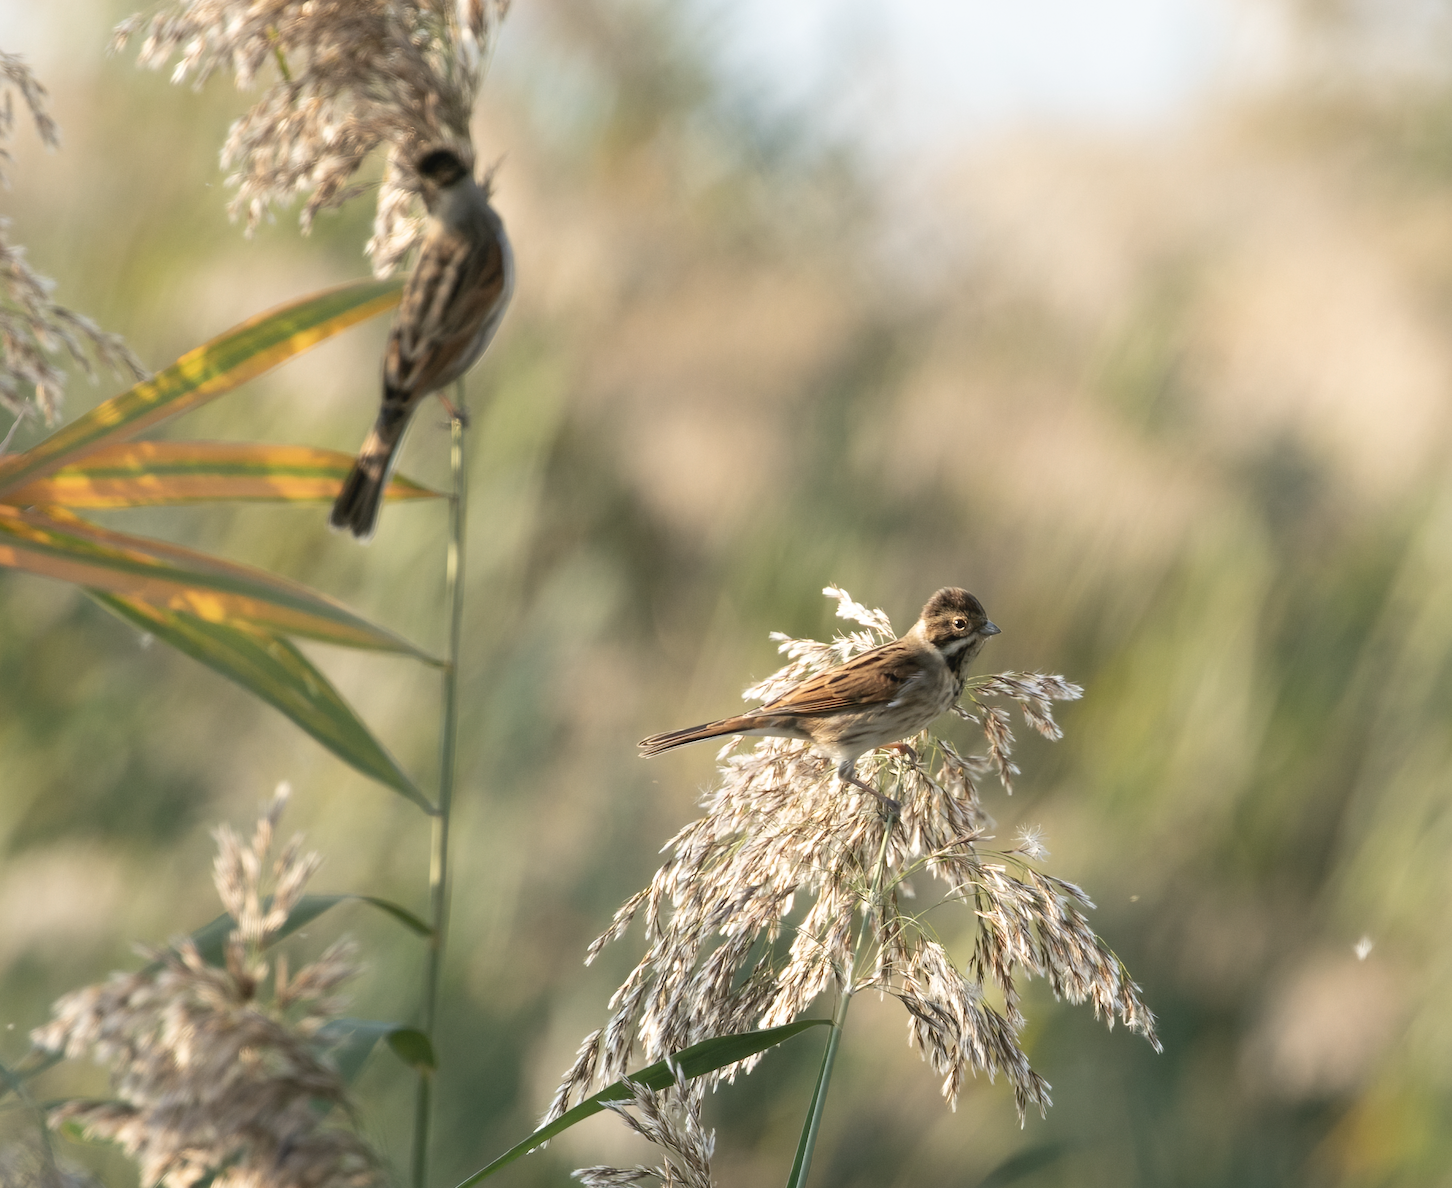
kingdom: Animalia
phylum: Chordata
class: Aves
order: Passeriformes
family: Emberizidae
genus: Emberiza
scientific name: Emberiza schoeniclus
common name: Reed bunting
